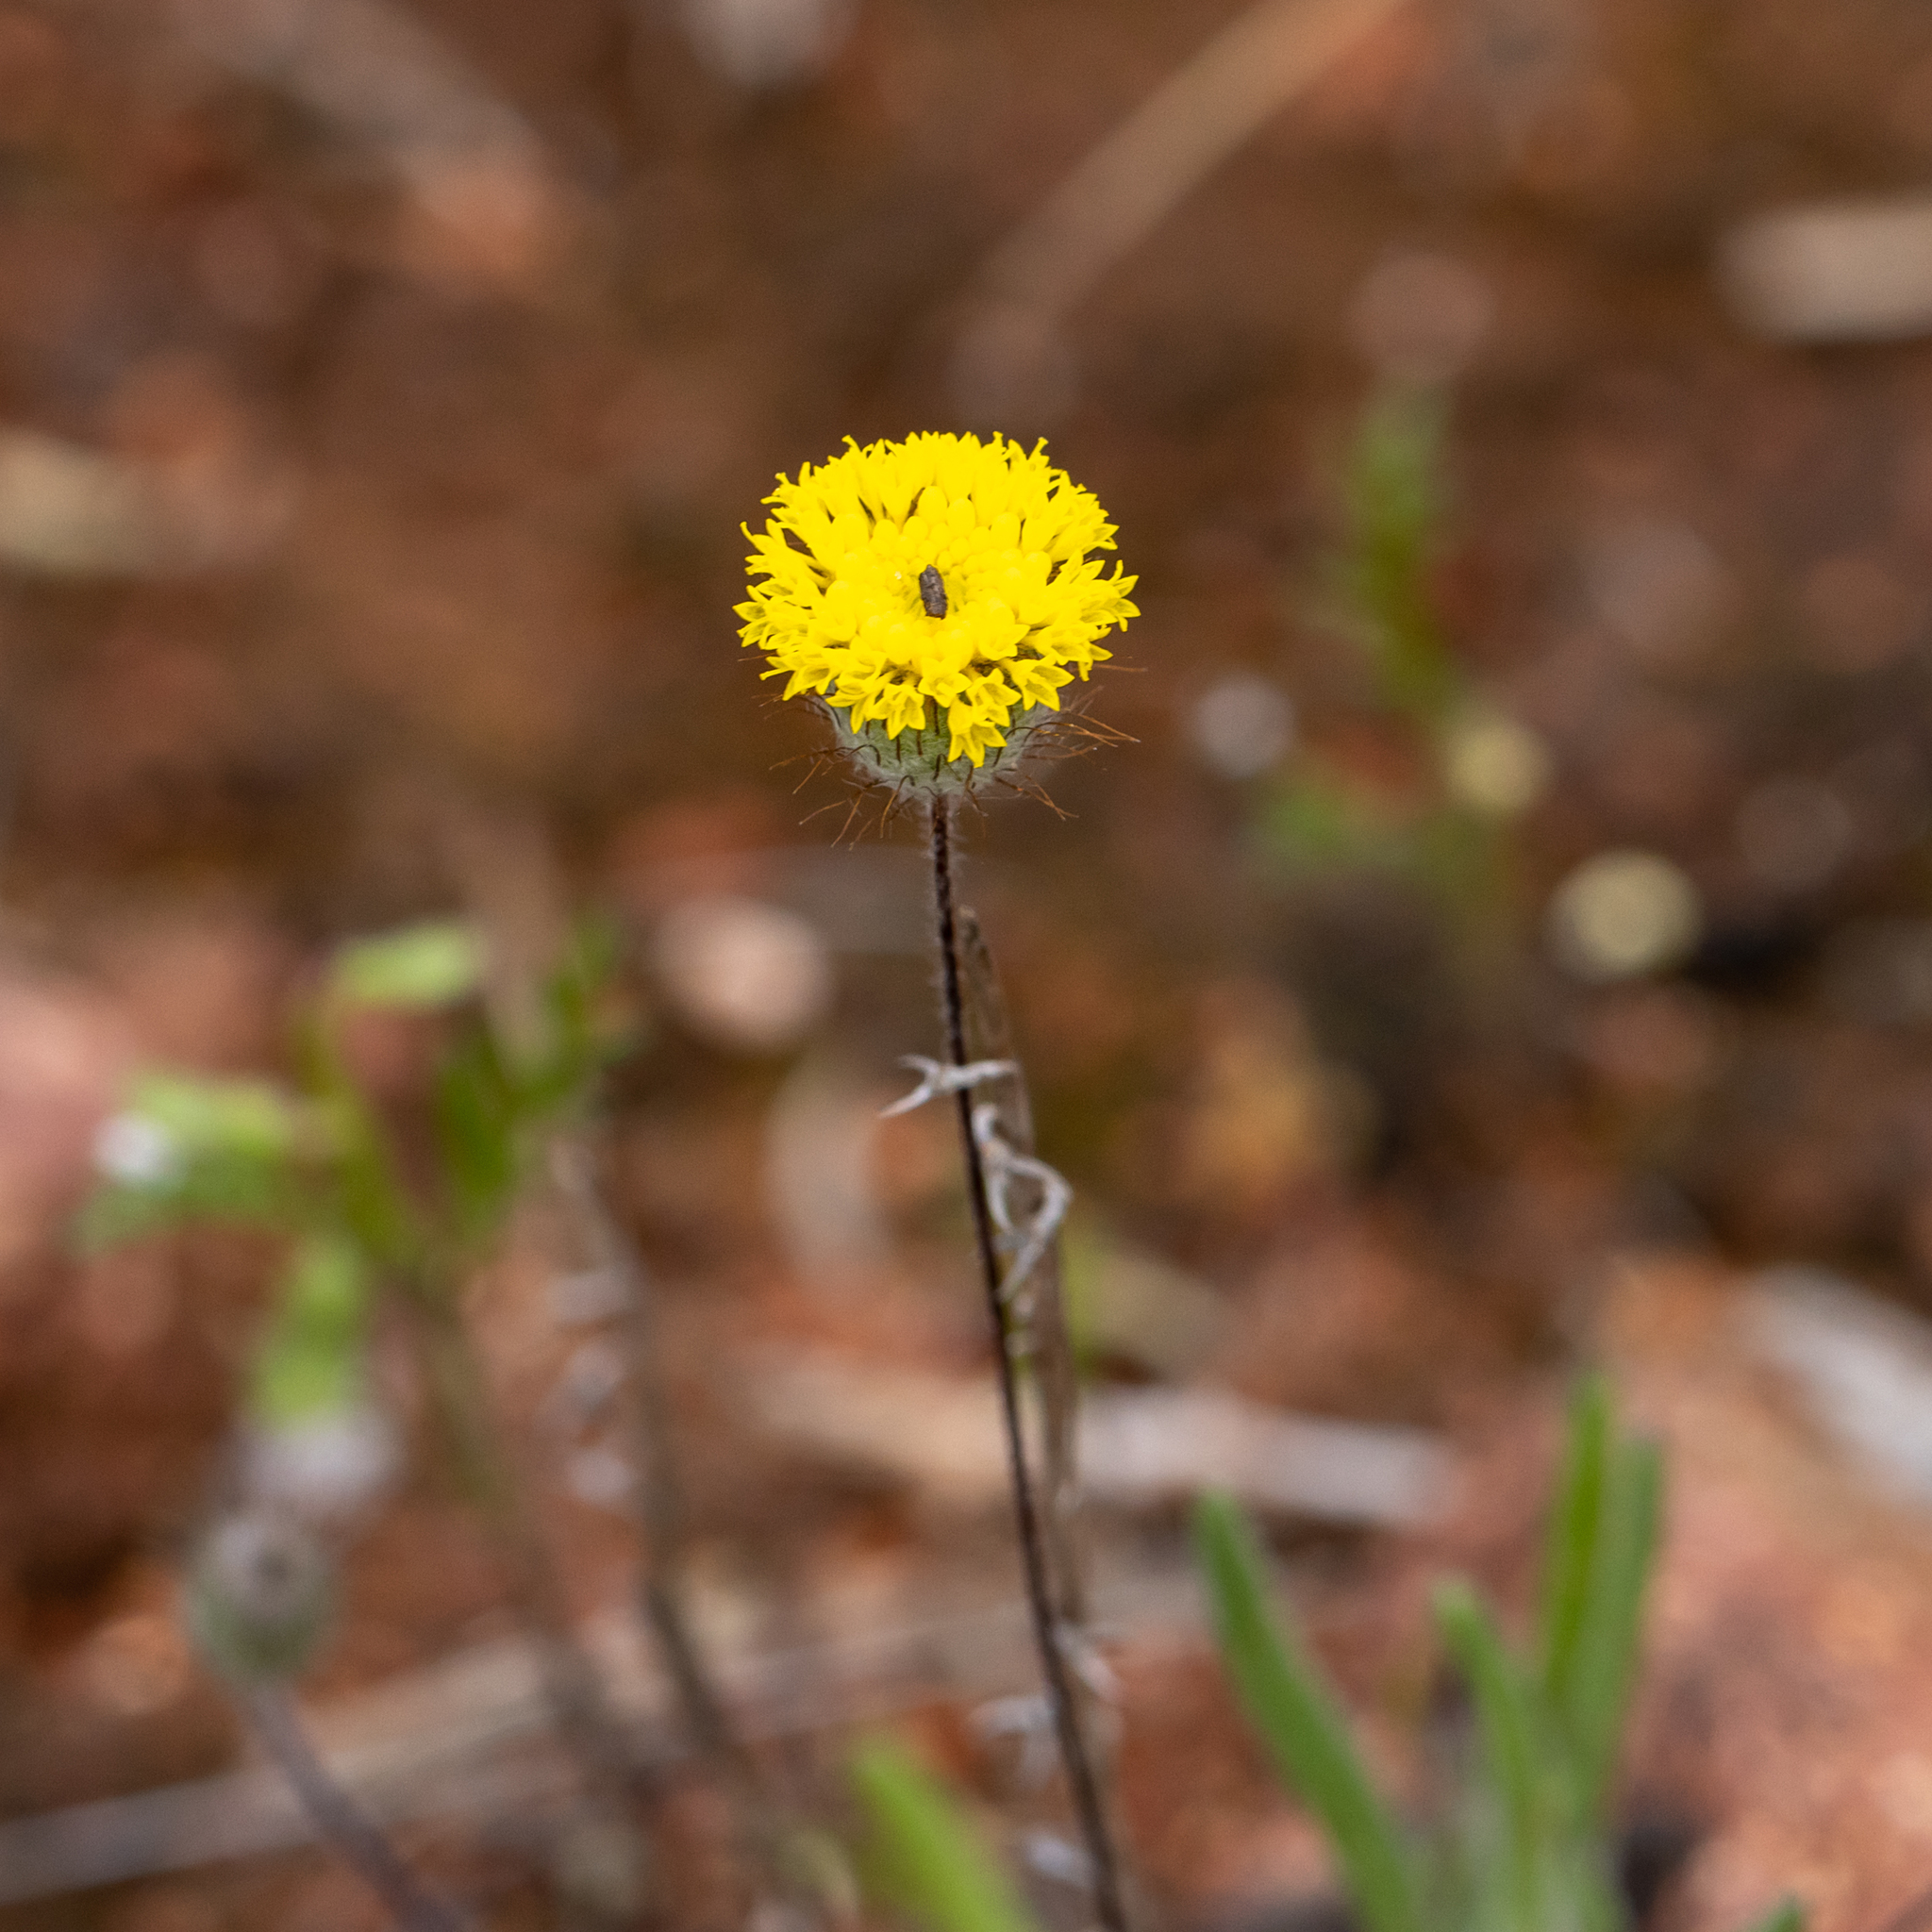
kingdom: Plantae
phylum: Tracheophyta
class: Magnoliopsida
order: Asterales
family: Asteraceae
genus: Asteridea
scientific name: Asteridea athrixioides
